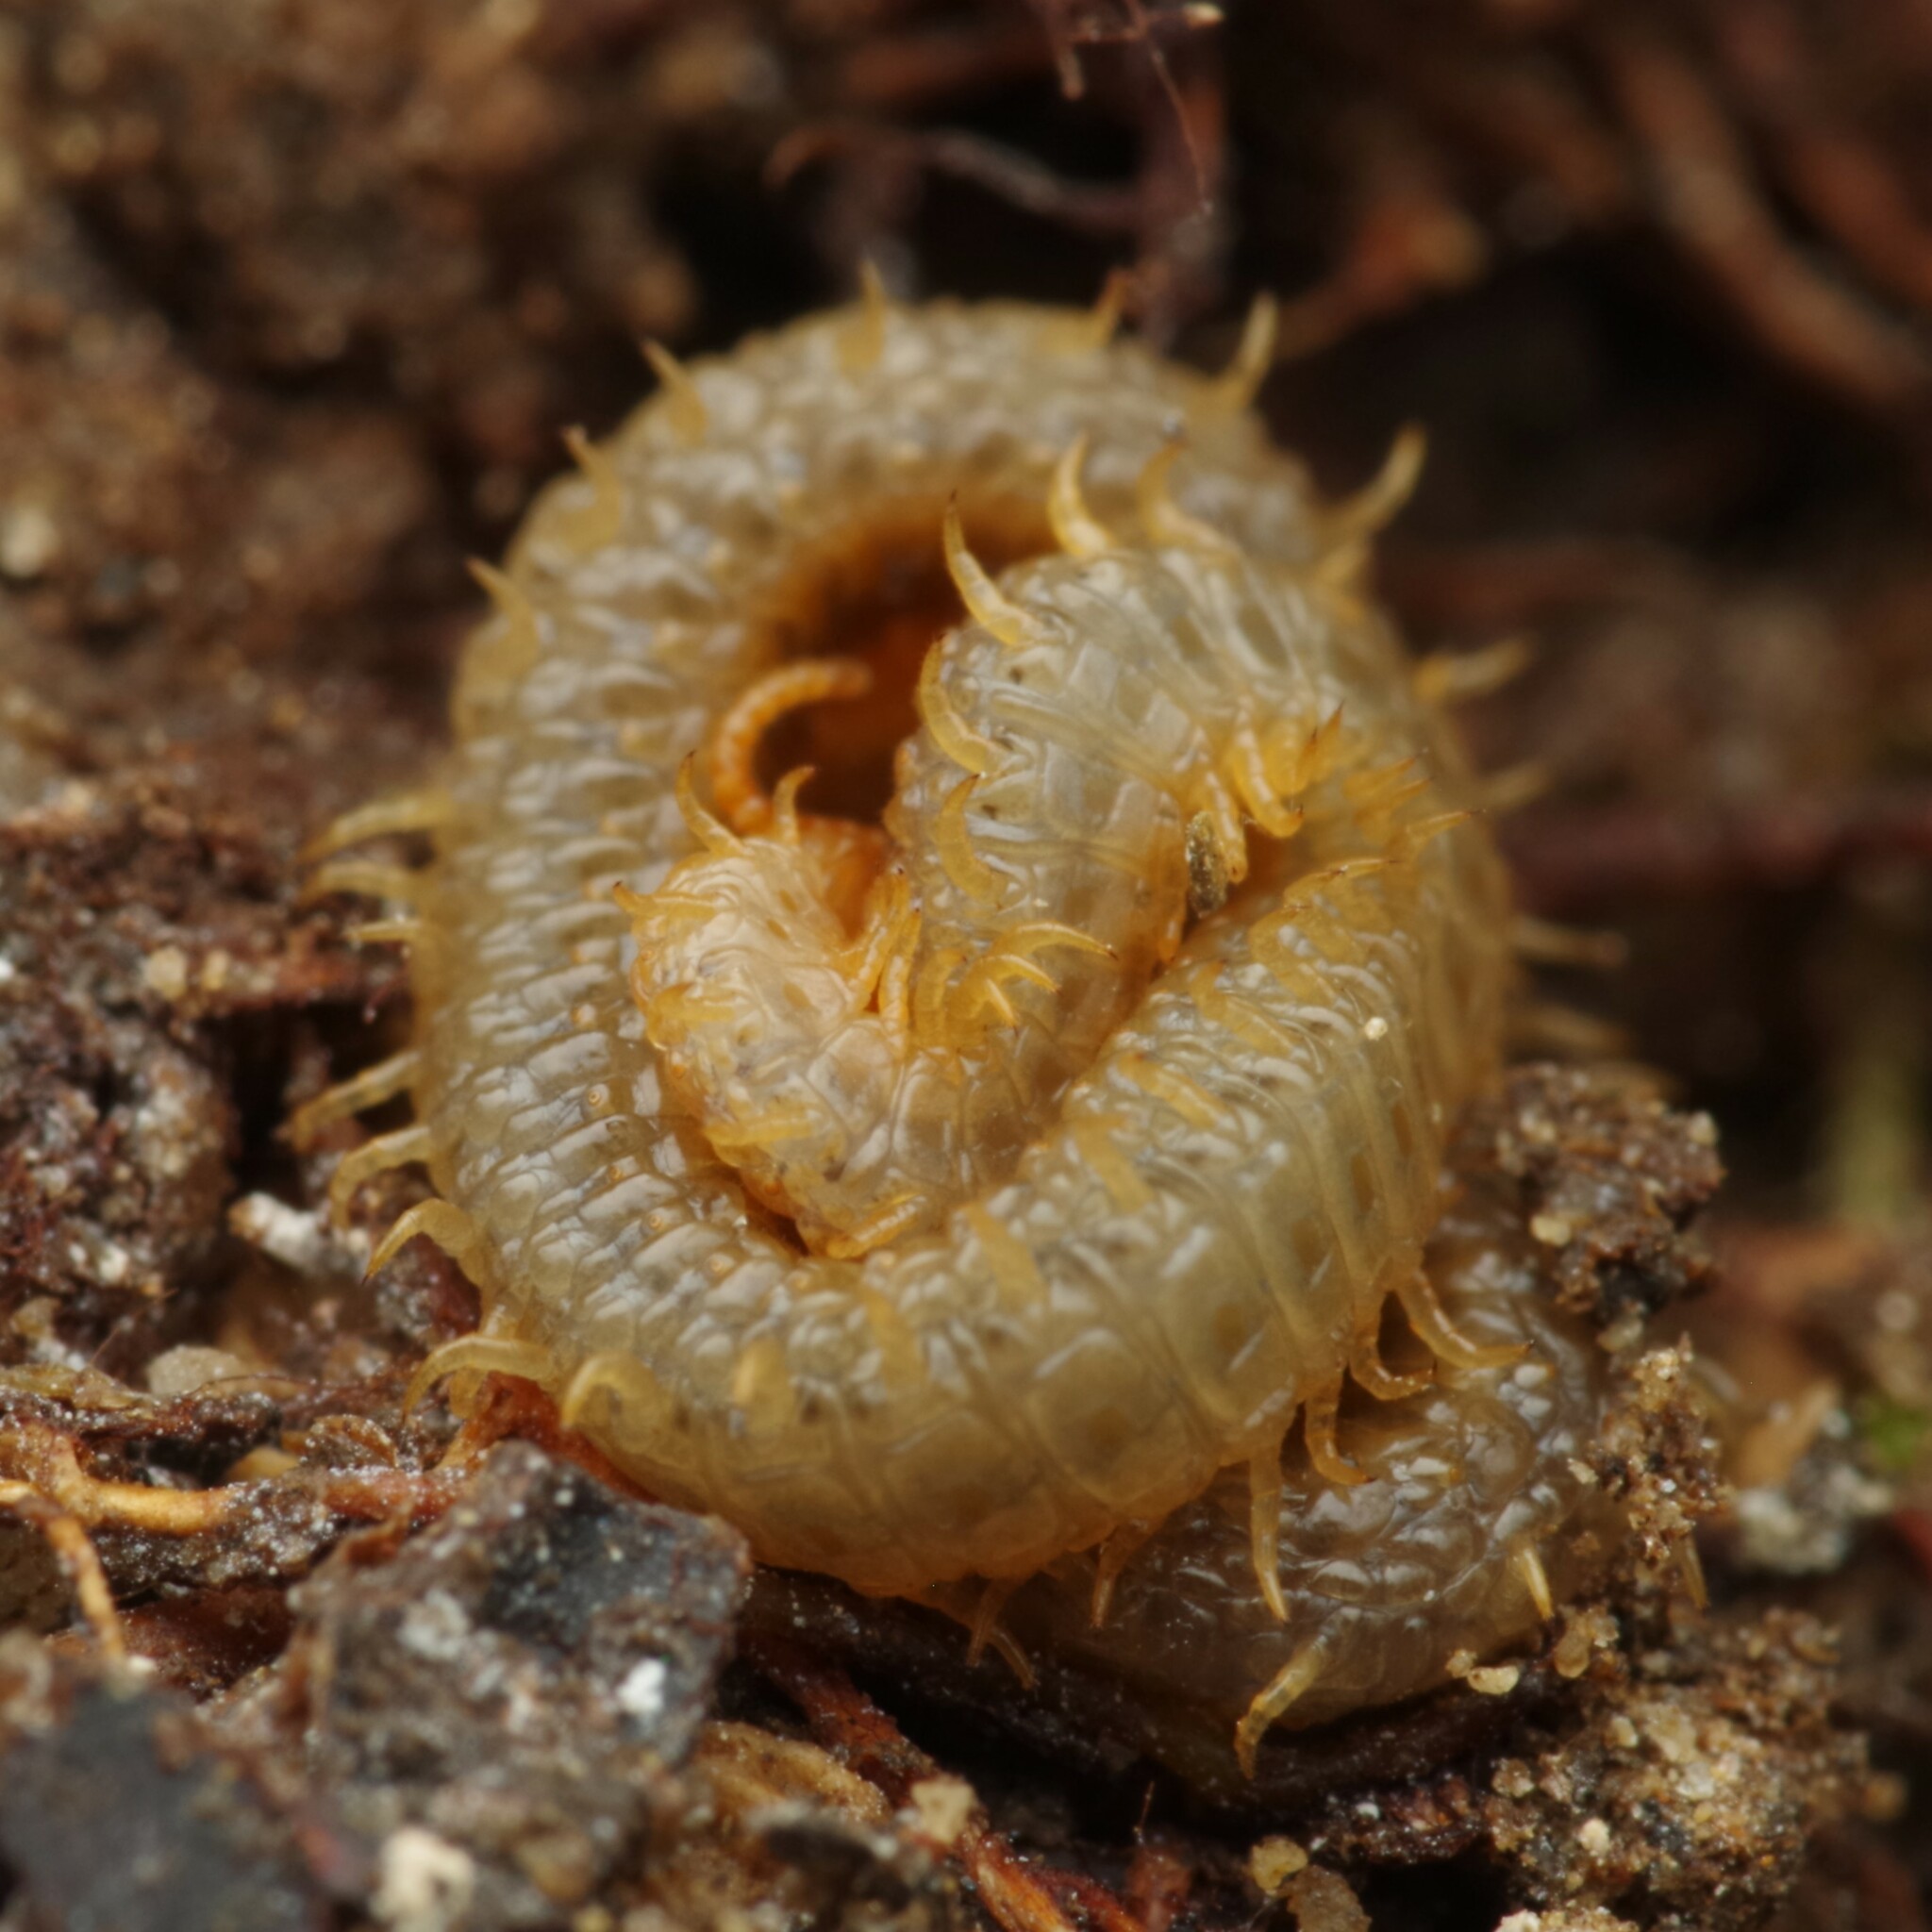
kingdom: Animalia
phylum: Arthropoda
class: Chilopoda
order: Geophilomorpha
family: Dignathodontidae
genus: Henia
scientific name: Henia vesuviana
